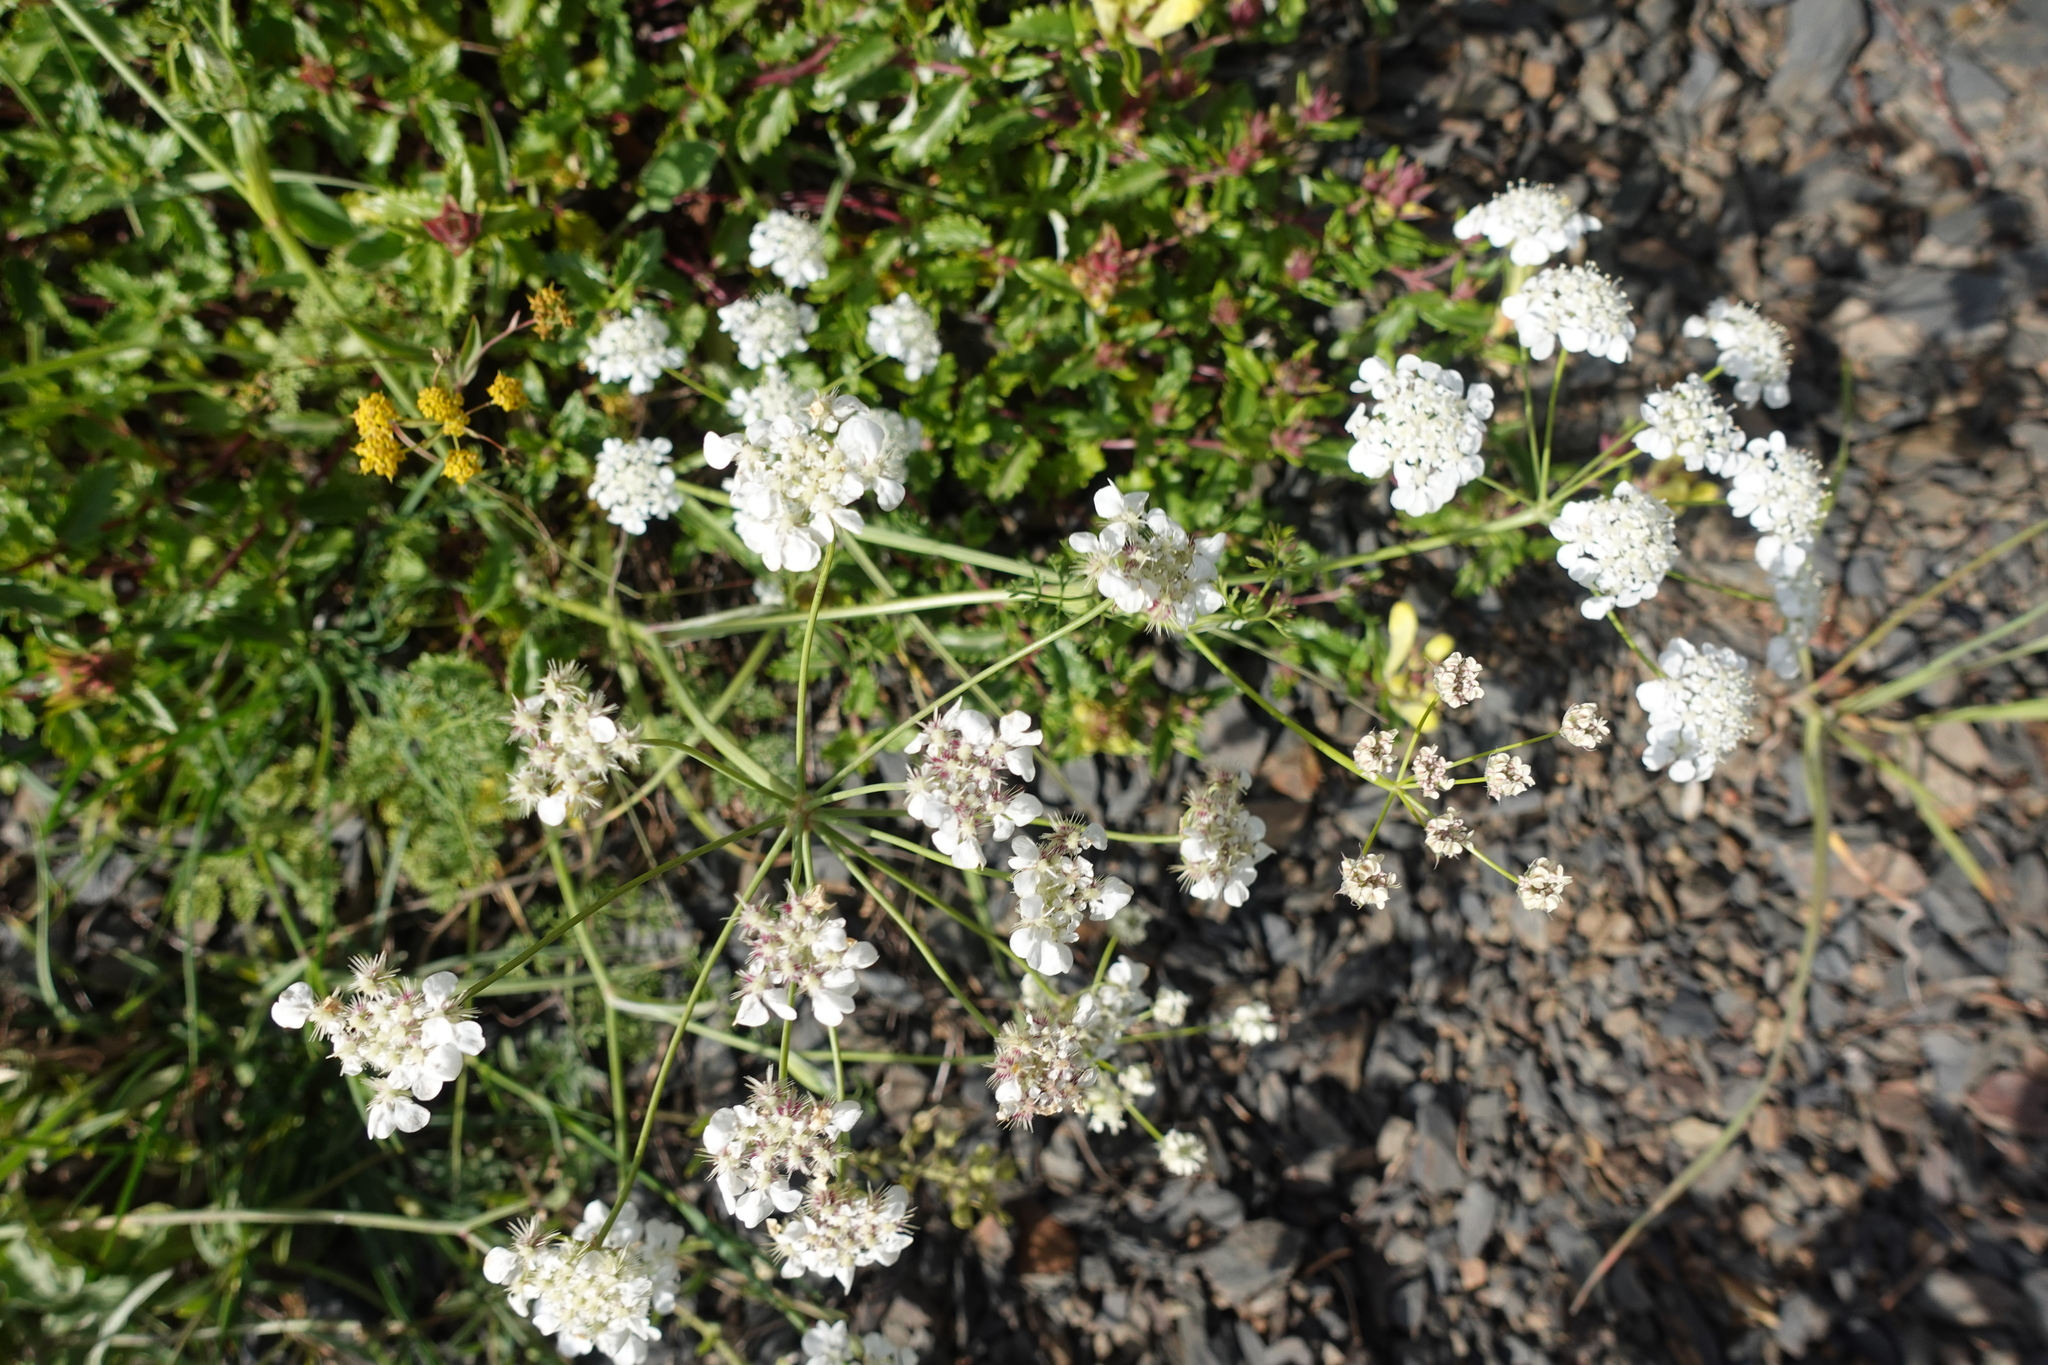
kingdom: Plantae
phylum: Tracheophyta
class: Magnoliopsida
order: Apiales
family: Apiaceae
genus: Astrodaucus
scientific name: Astrodaucus orientalis
